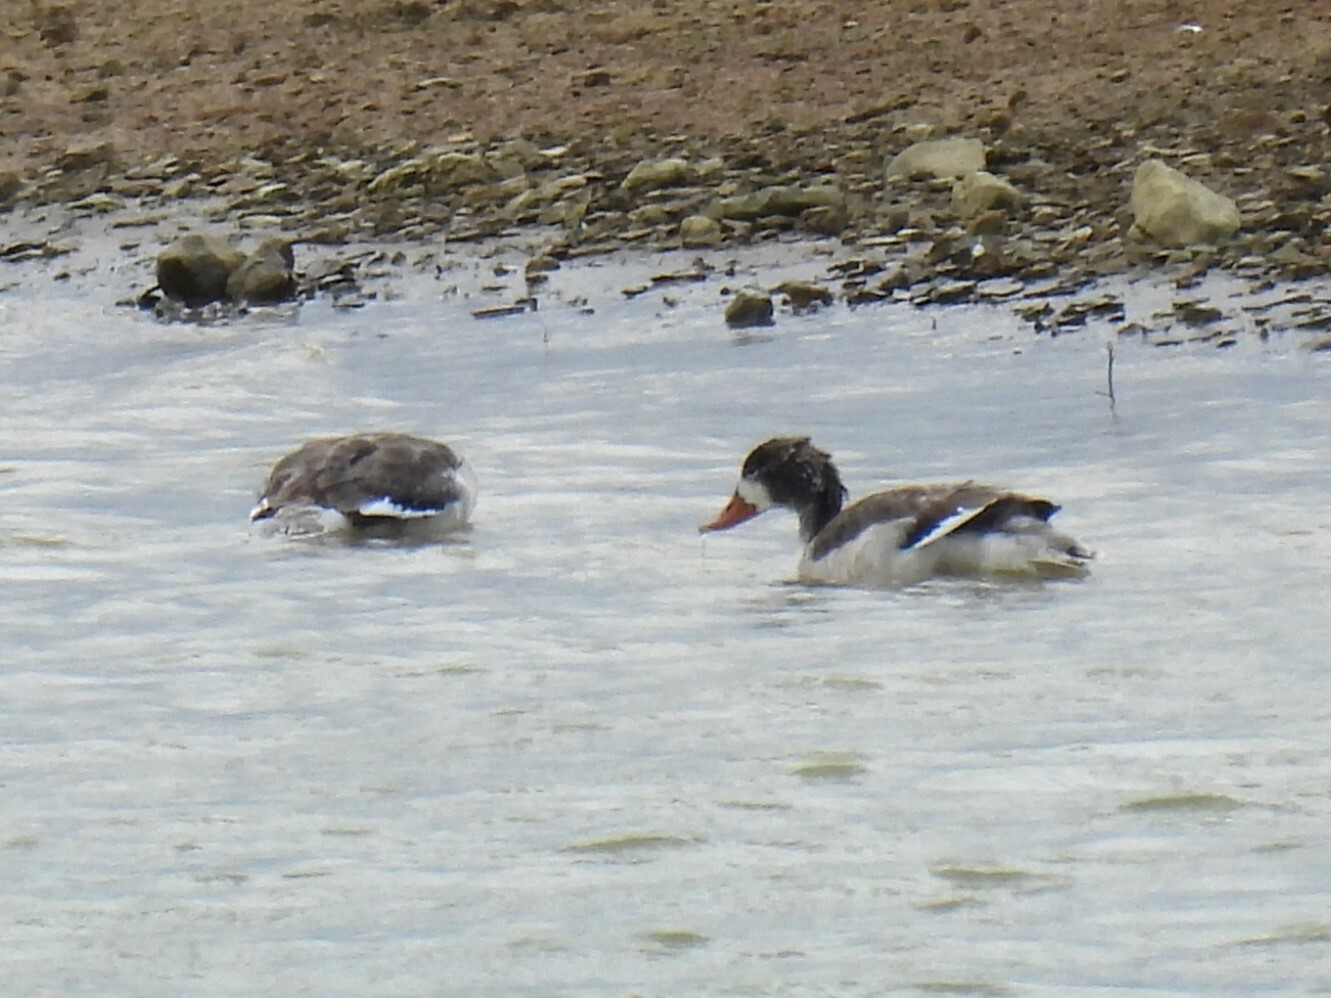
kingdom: Animalia
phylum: Chordata
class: Aves
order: Anseriformes
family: Anatidae
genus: Tadorna
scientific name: Tadorna tadorna
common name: Common shelduck
